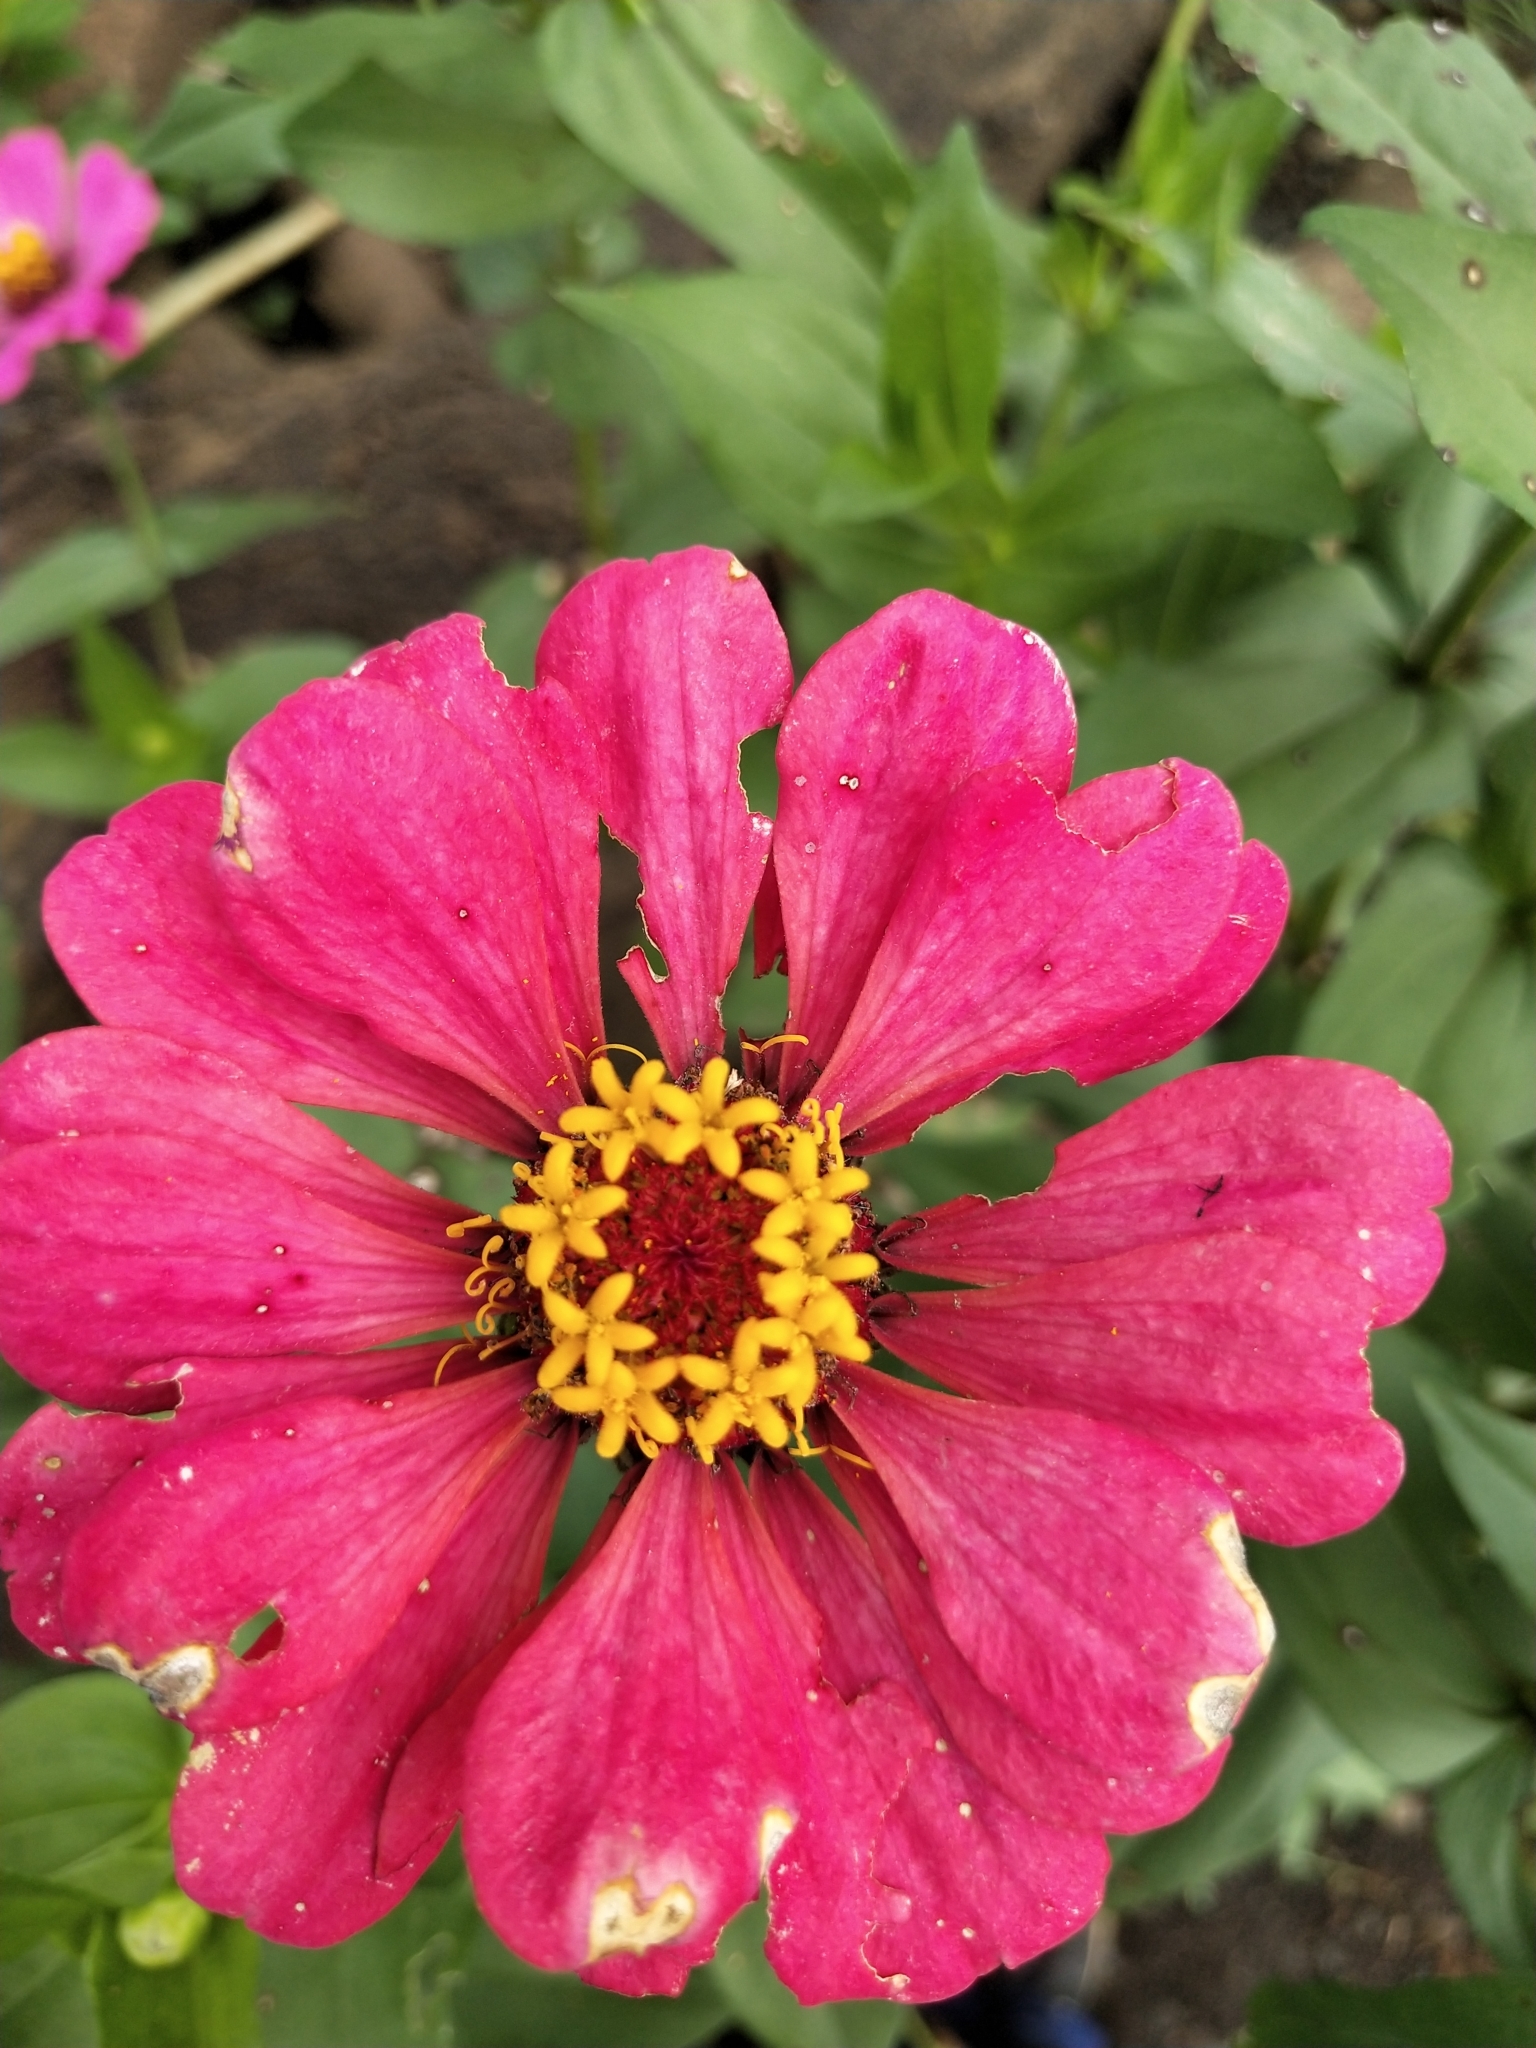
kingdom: Plantae
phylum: Tracheophyta
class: Magnoliopsida
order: Asterales
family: Asteraceae
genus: Zinnia
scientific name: Zinnia elegans
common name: Youth-and-age
